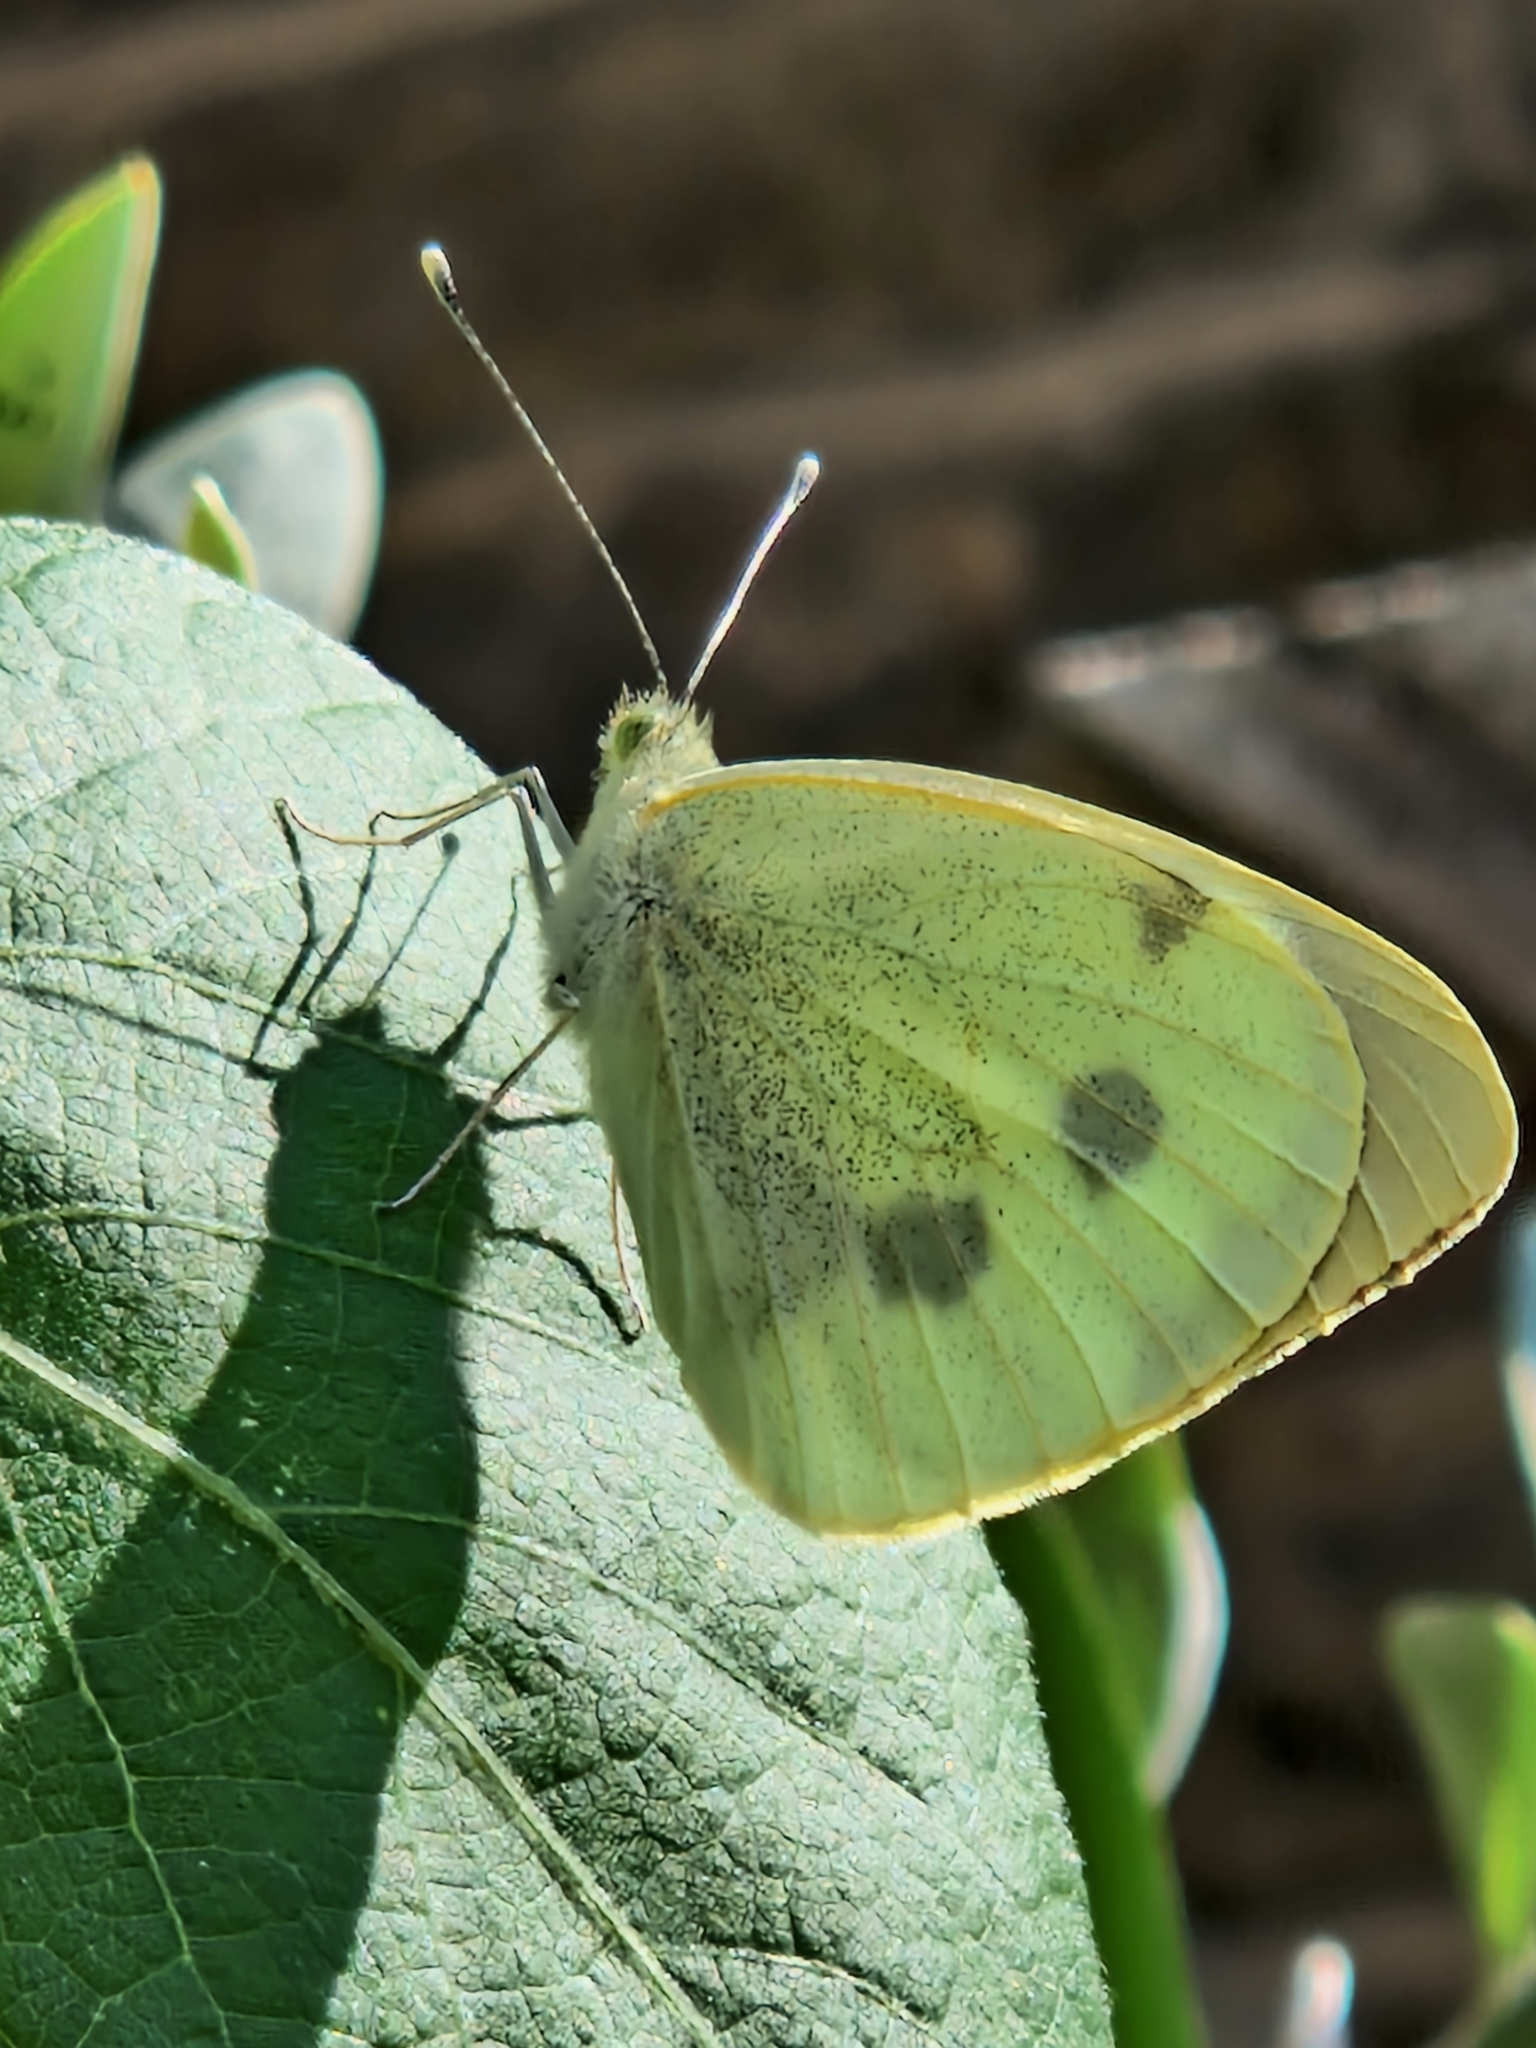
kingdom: Animalia
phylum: Arthropoda
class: Insecta
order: Lepidoptera
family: Pieridae
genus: Pieris
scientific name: Pieris brassicae
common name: Large white
